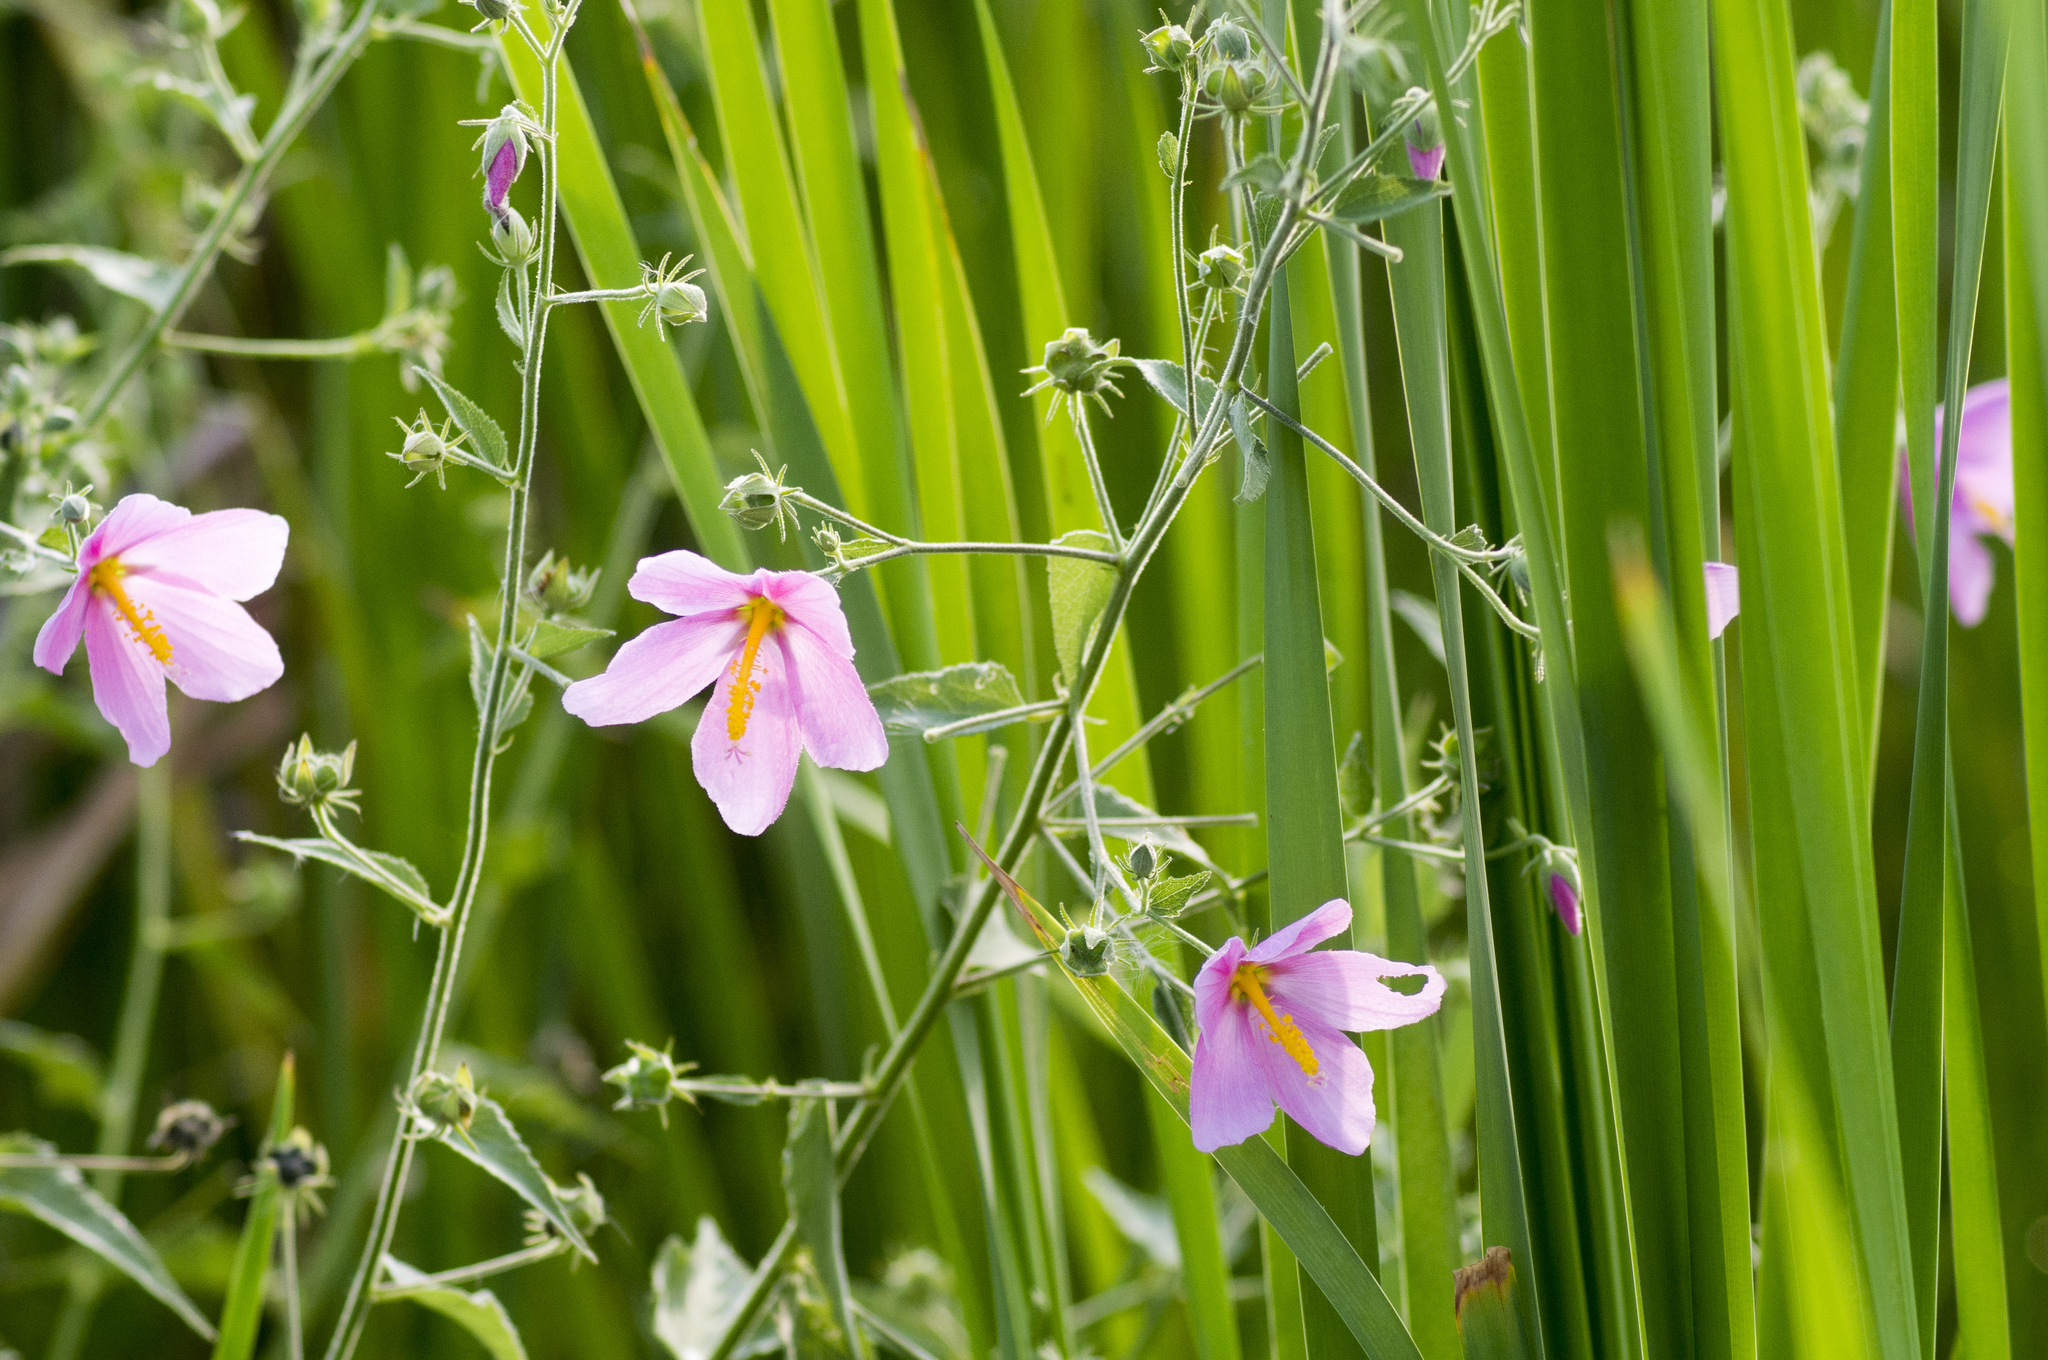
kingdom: Plantae
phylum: Tracheophyta
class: Magnoliopsida
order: Malvales
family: Malvaceae
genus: Kosteletzkya
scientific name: Kosteletzkya pentacarpos
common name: Virginia saltmarsh mallow
